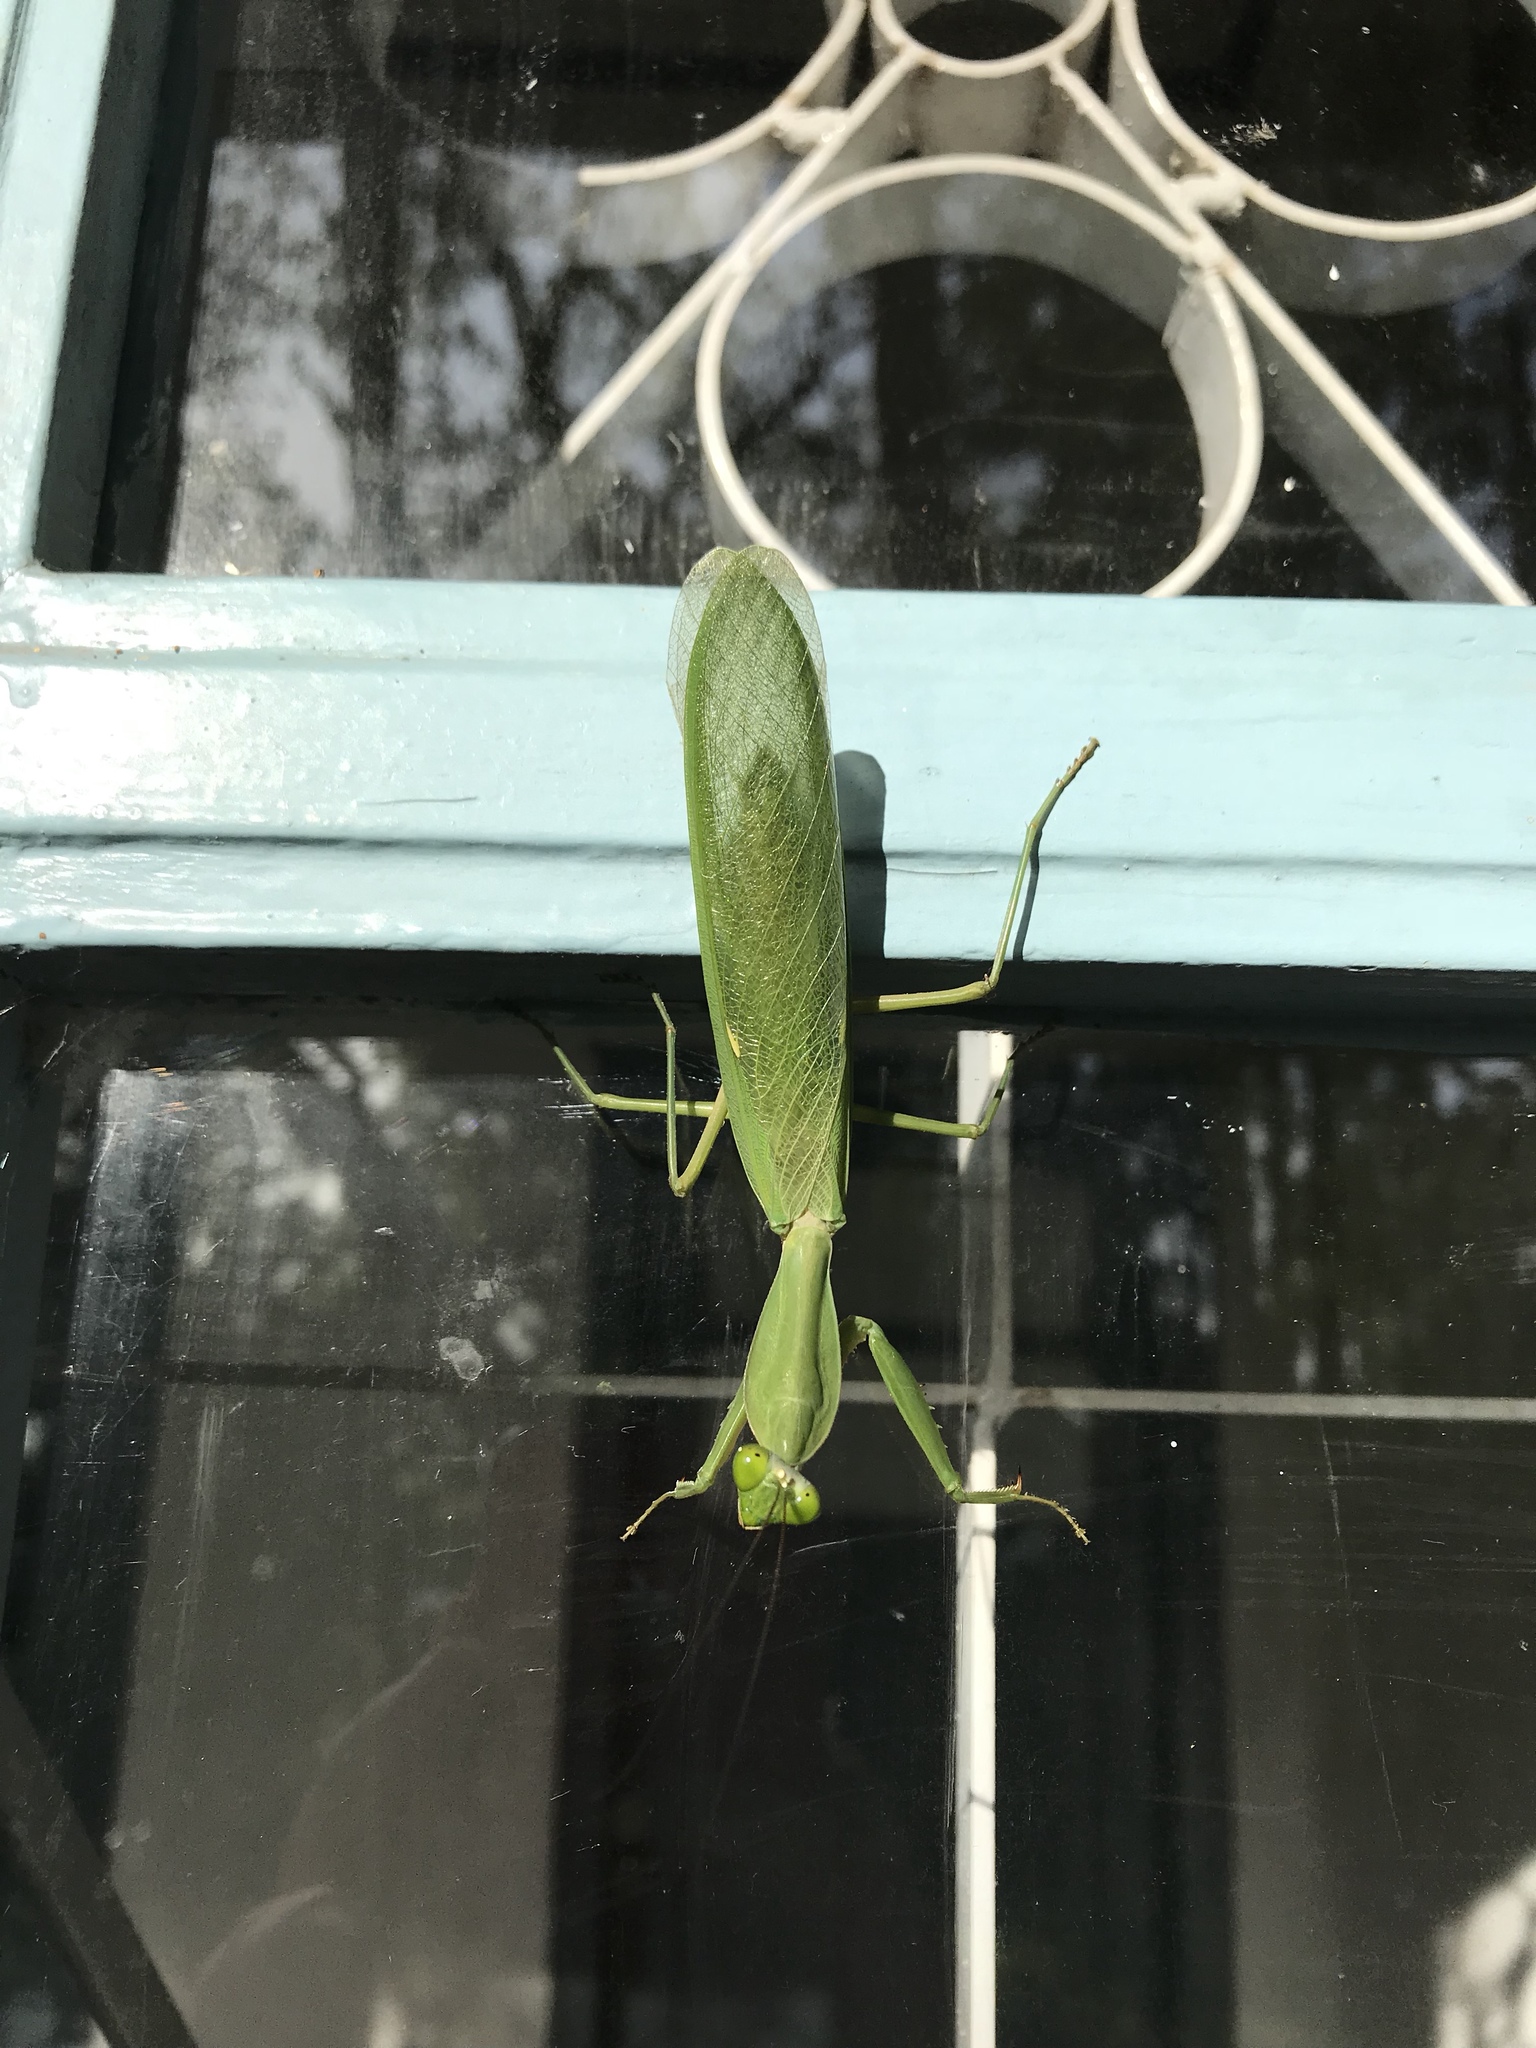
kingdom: Animalia
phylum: Arthropoda
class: Insecta
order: Mantodea
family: Mantidae
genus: Rhombodera
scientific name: Rhombodera lingulata
